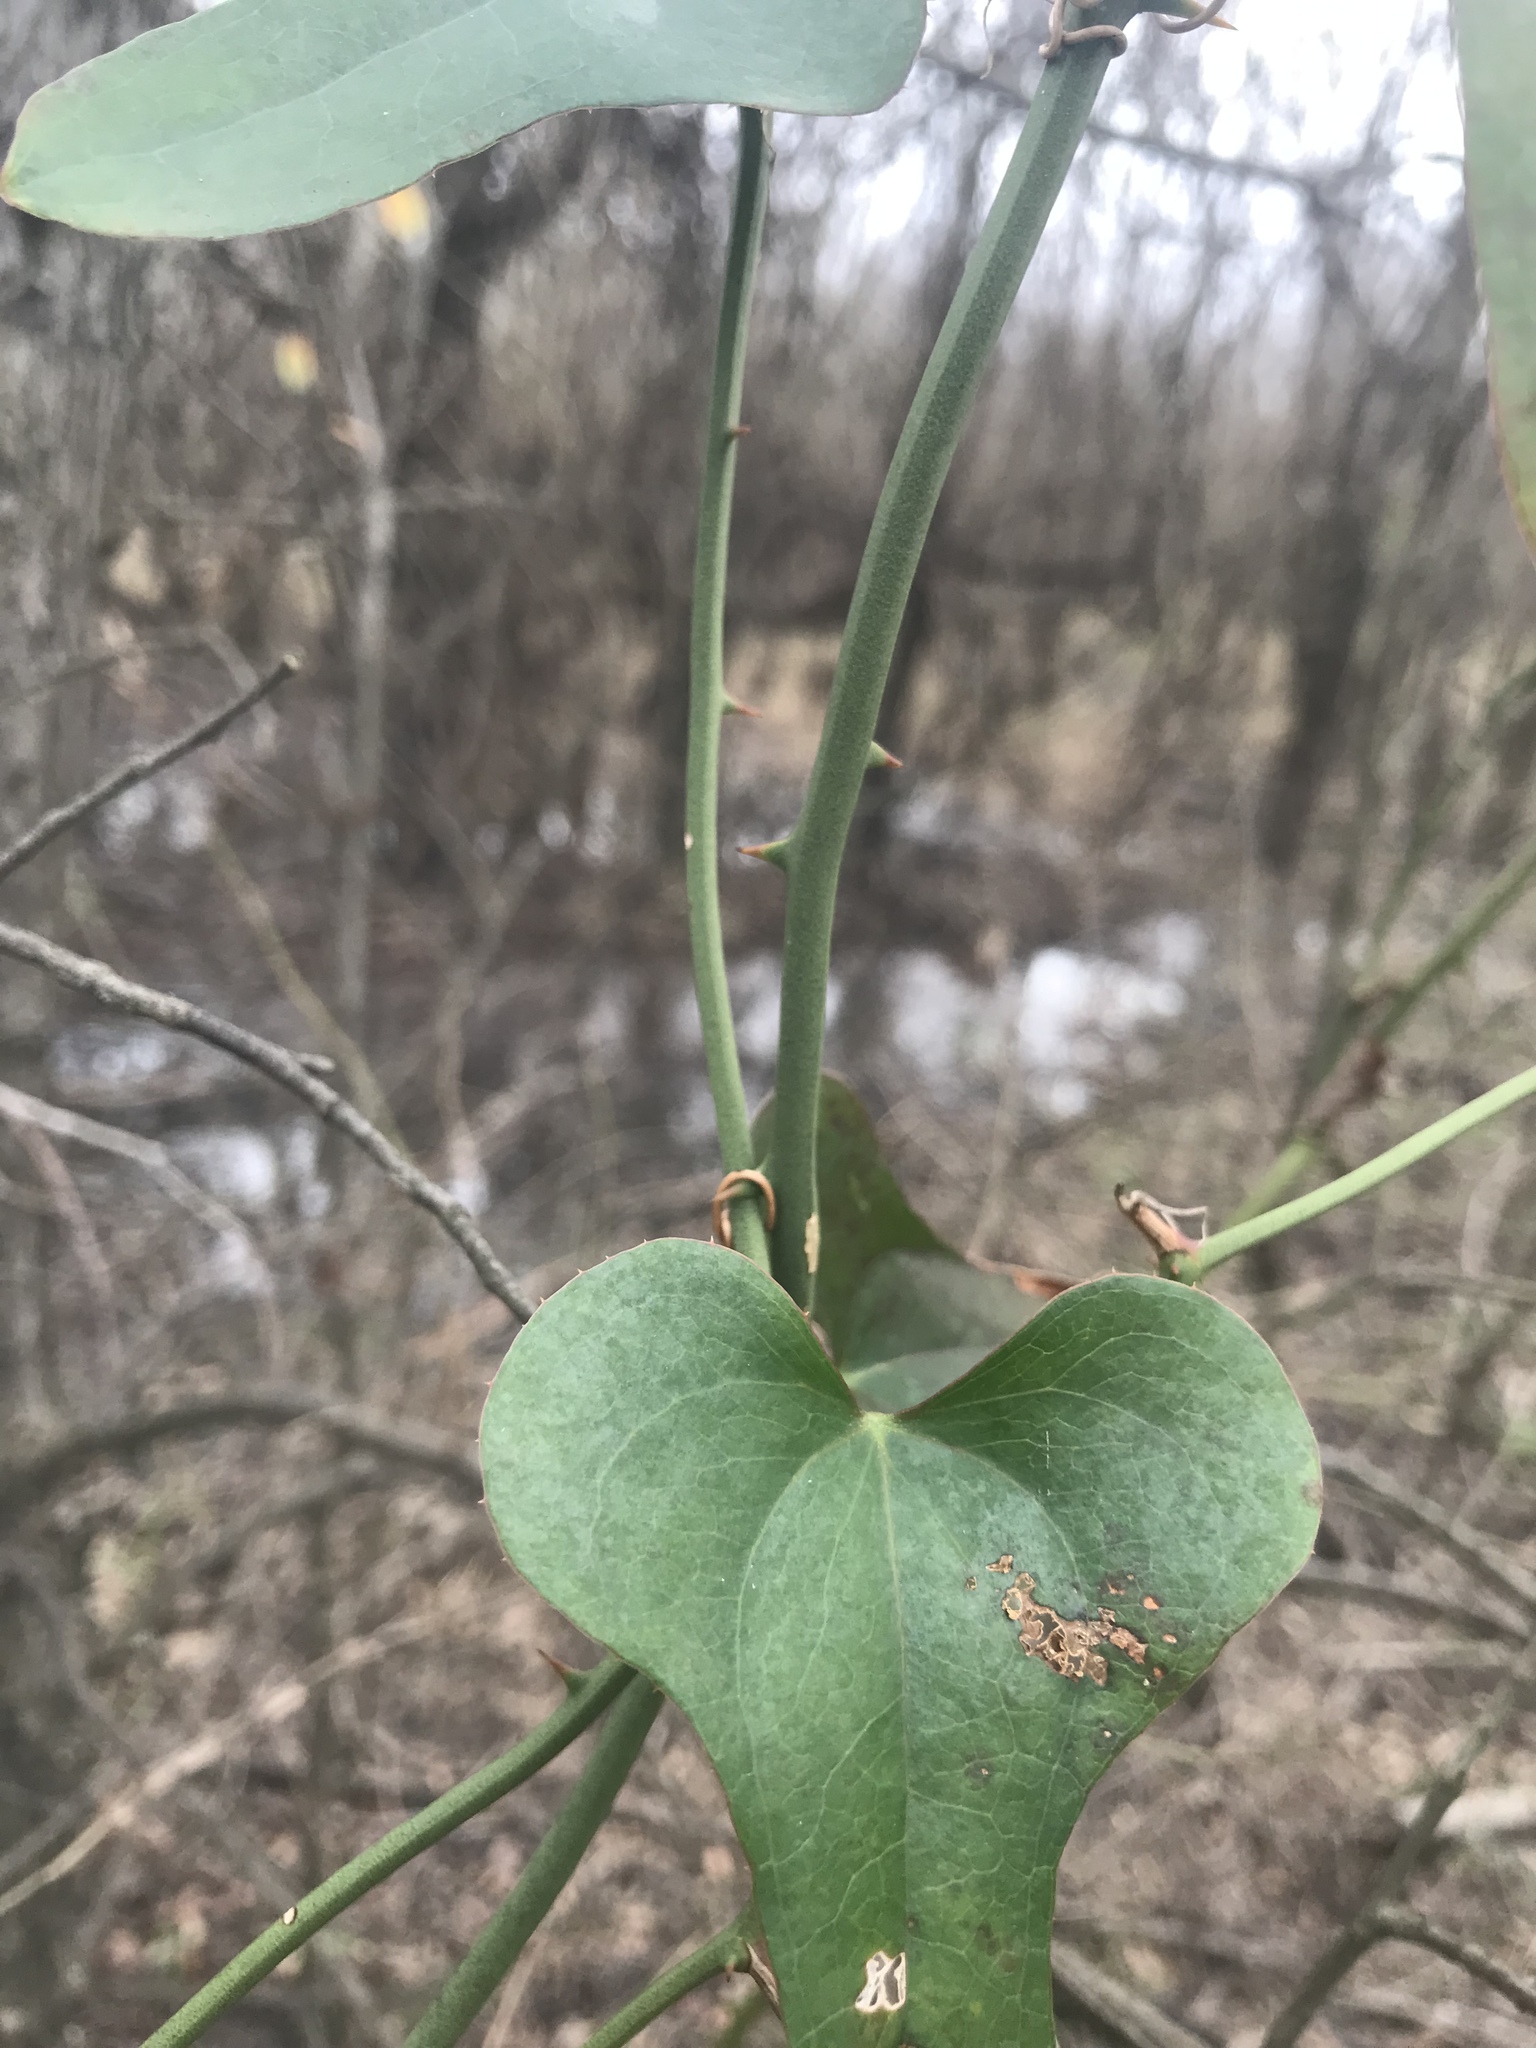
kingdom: Plantae
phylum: Tracheophyta
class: Liliopsida
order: Liliales
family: Smilacaceae
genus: Smilax
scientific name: Smilax bona-nox
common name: Catbrier
